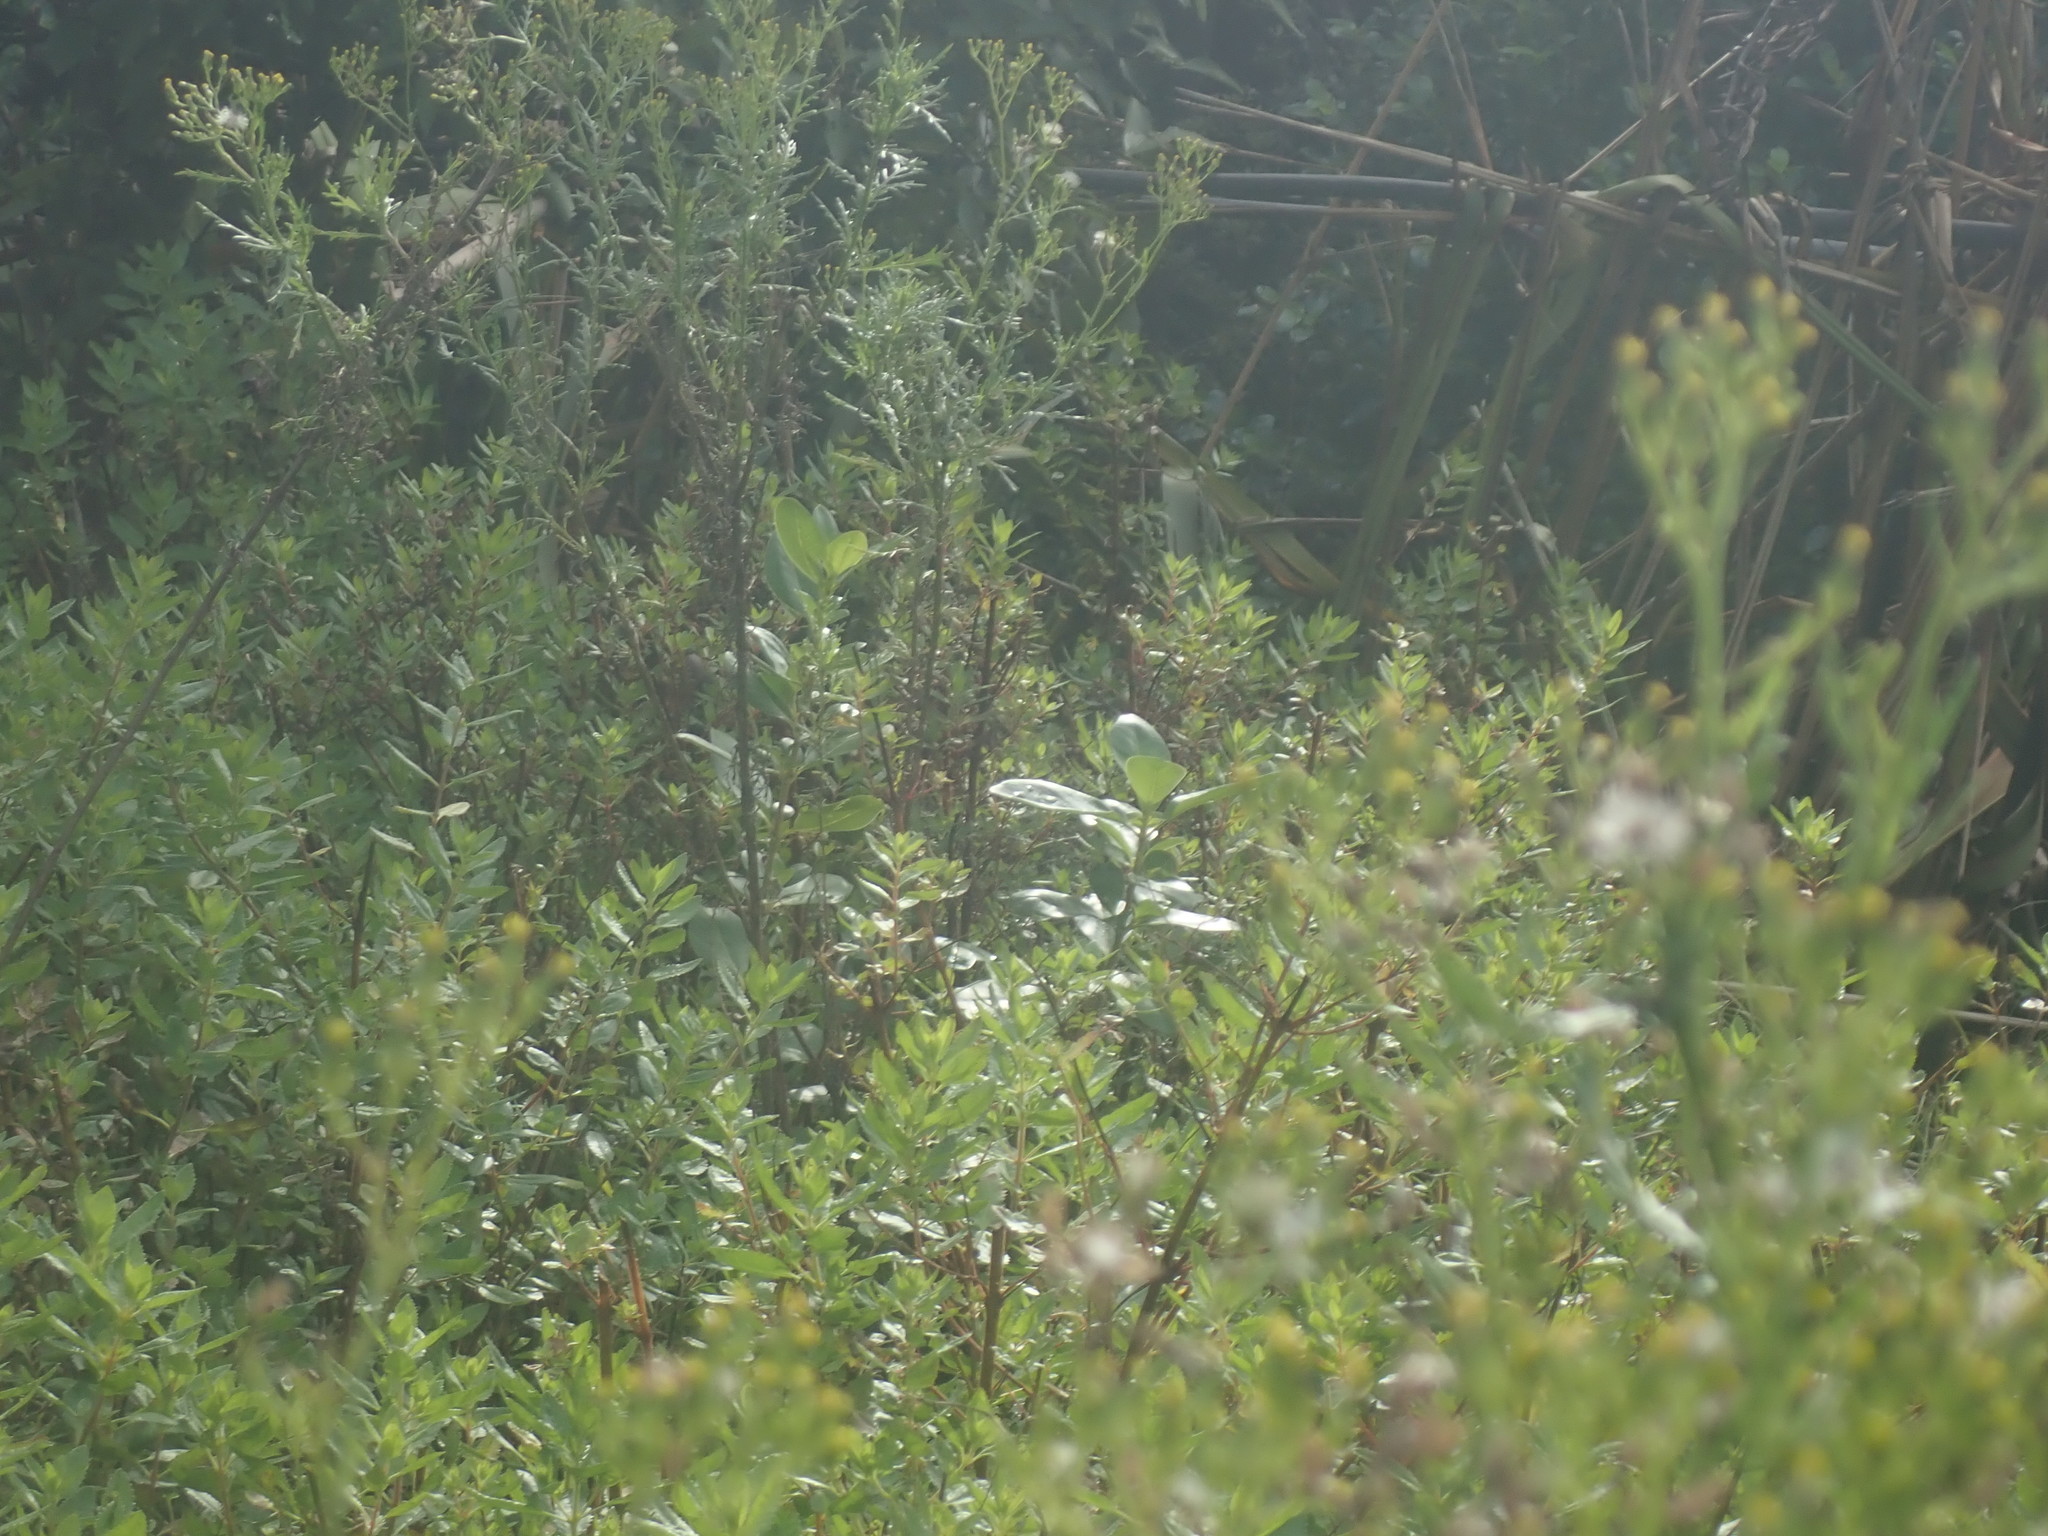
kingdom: Plantae
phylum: Tracheophyta
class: Magnoliopsida
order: Asterales
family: Asteraceae
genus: Senecio
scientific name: Senecio esleri
